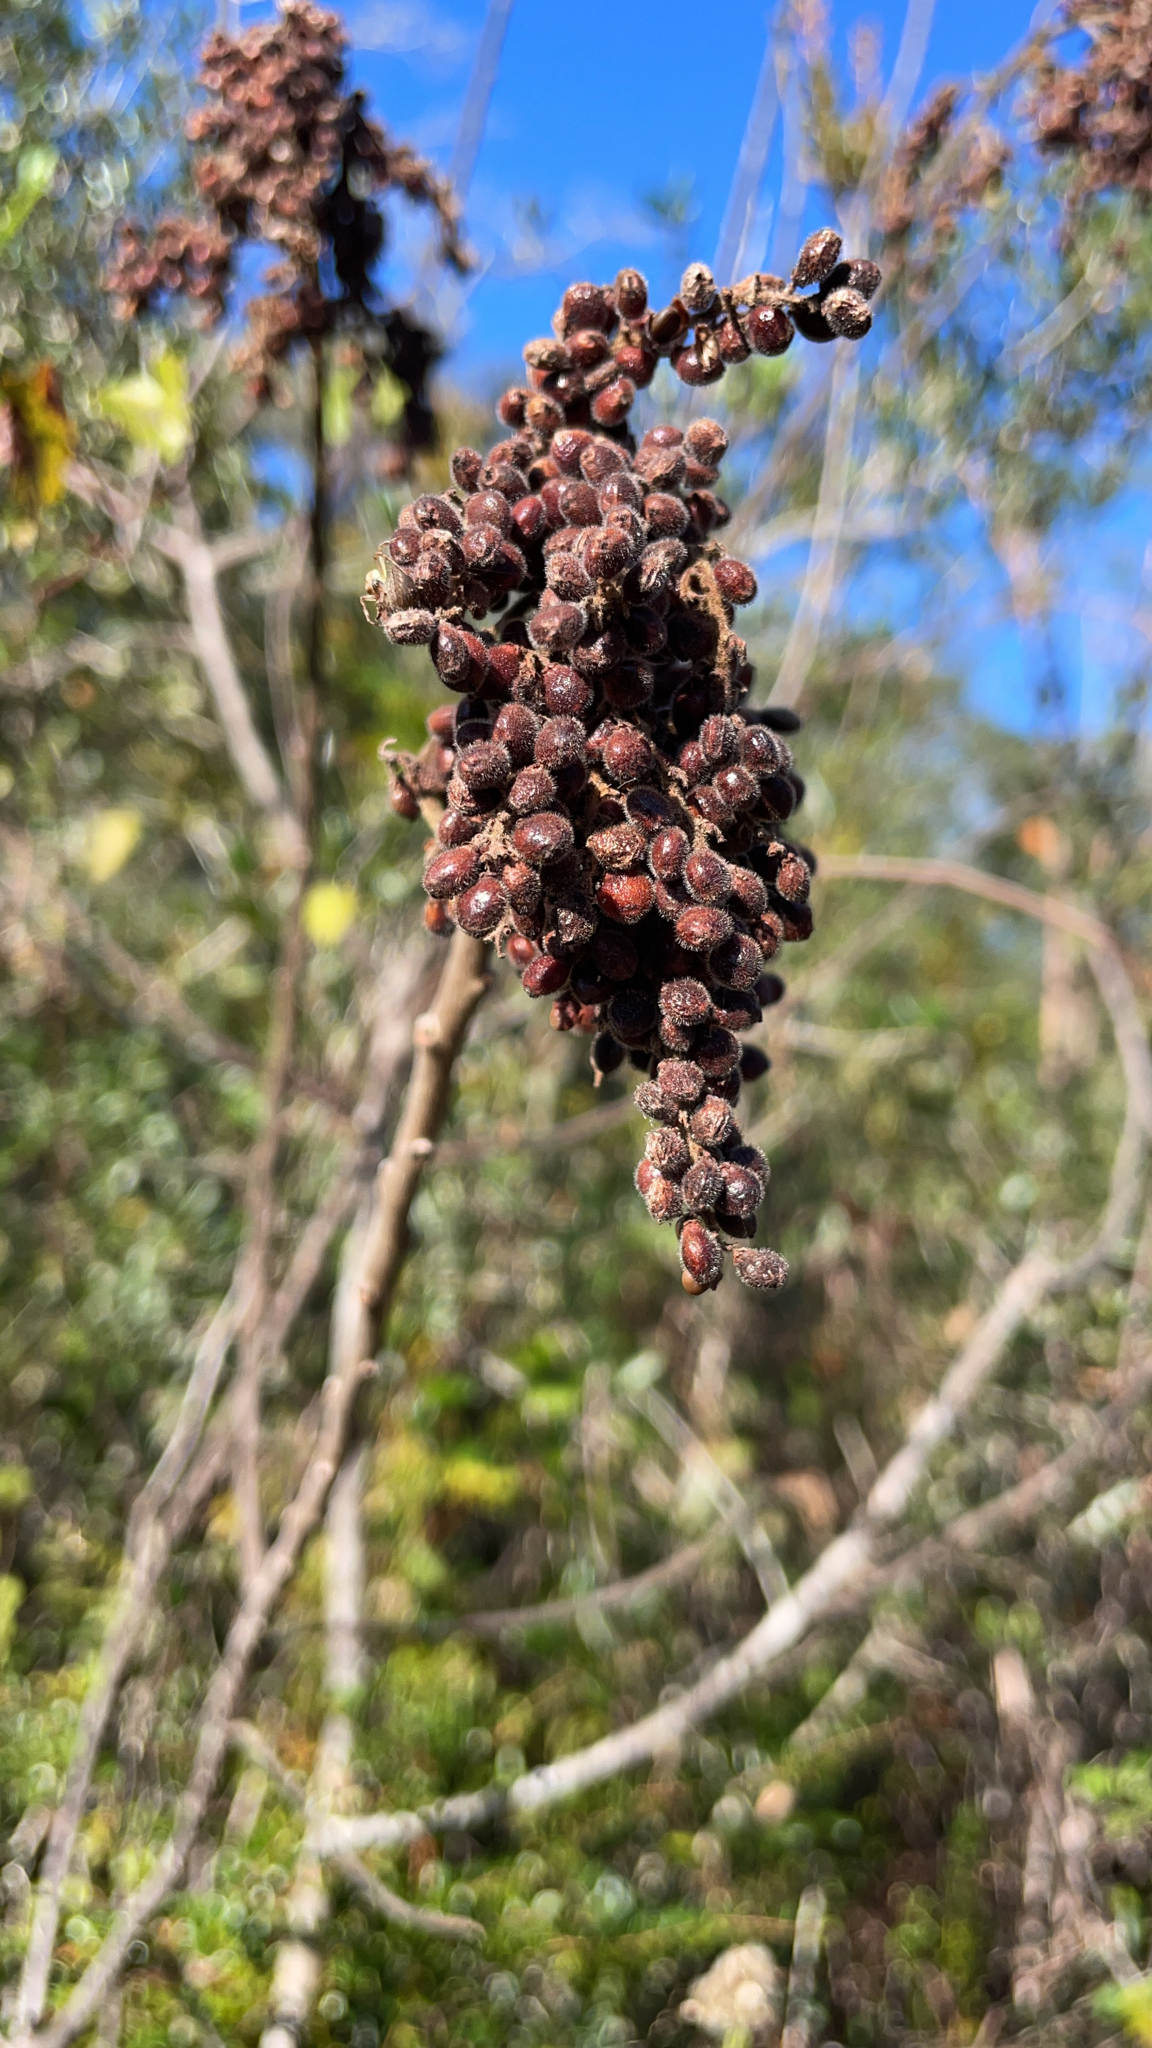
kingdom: Plantae
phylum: Tracheophyta
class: Magnoliopsida
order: Sapindales
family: Anacardiaceae
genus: Rhus
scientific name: Rhus copallina
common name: Shining sumac
